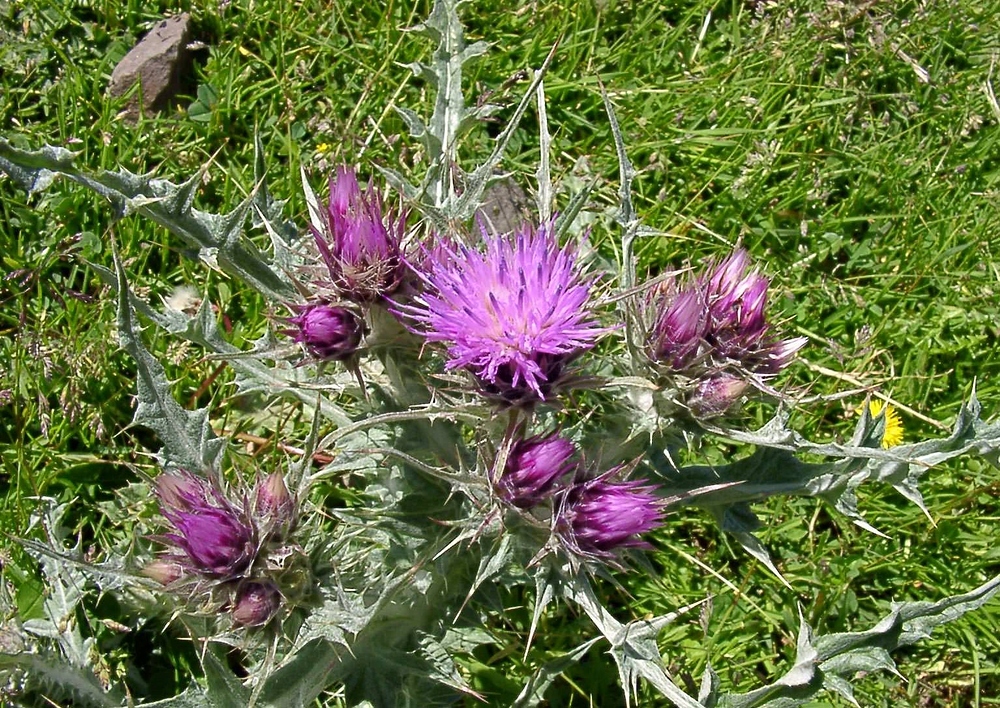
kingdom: Plantae
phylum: Tracheophyta
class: Magnoliopsida
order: Asterales
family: Asteraceae
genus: Carduus
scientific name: Carduus carlinoides
